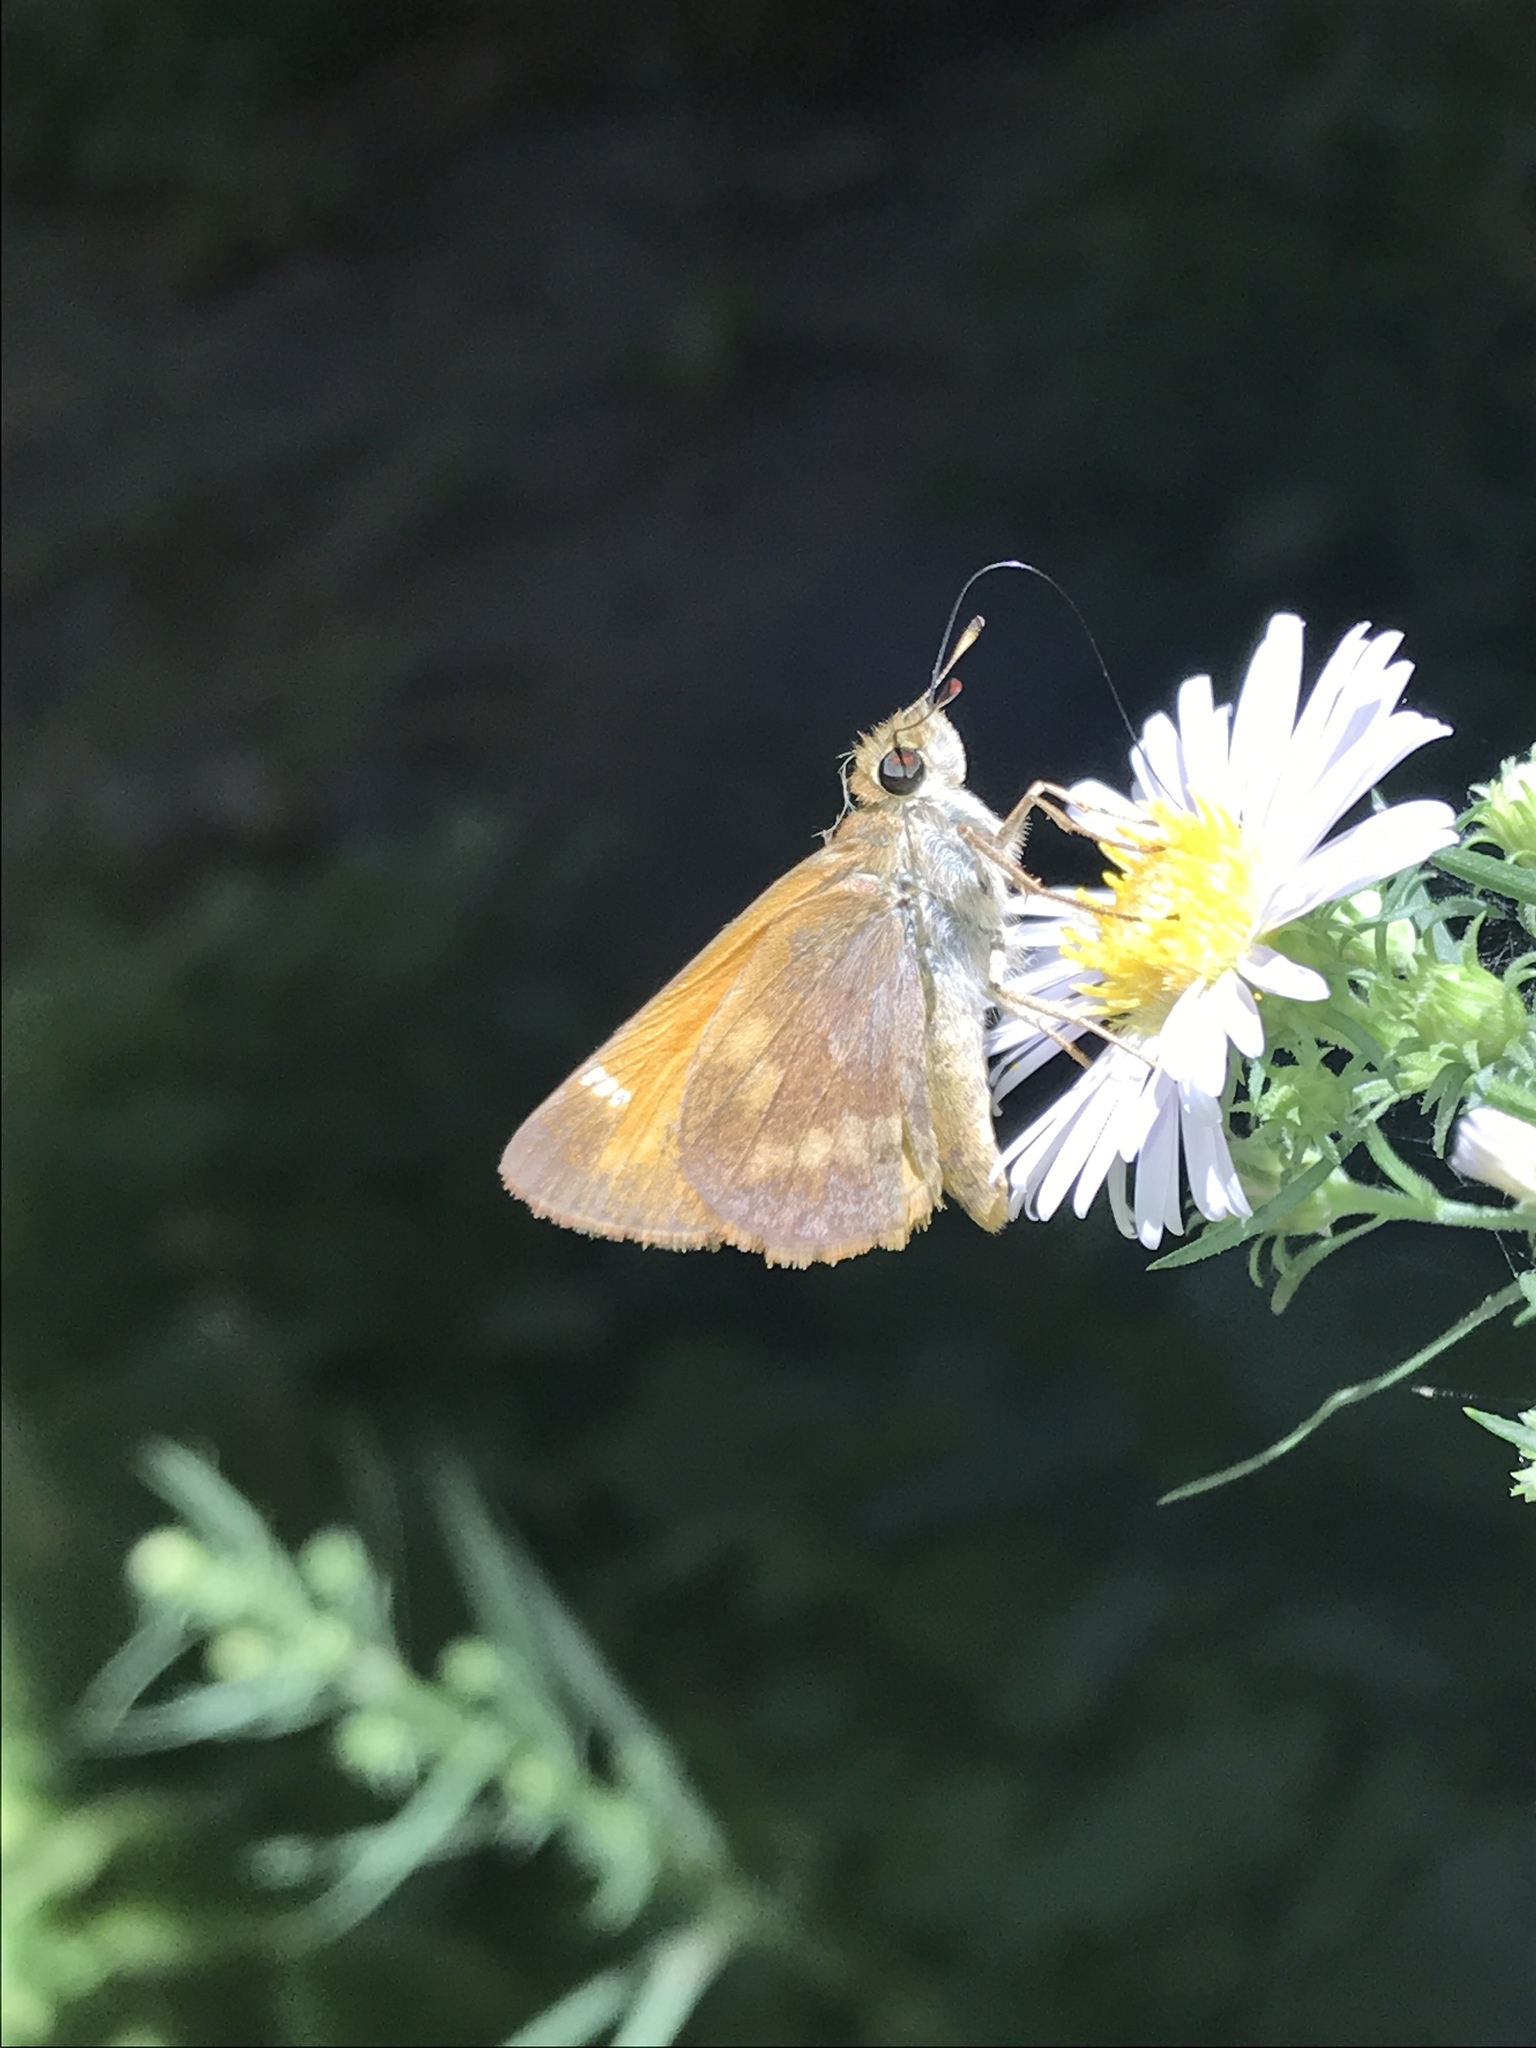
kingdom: Animalia
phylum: Arthropoda
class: Insecta
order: Lepidoptera
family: Hesperiidae
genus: Lon
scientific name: Lon taxiles
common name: Taxiles skipper
